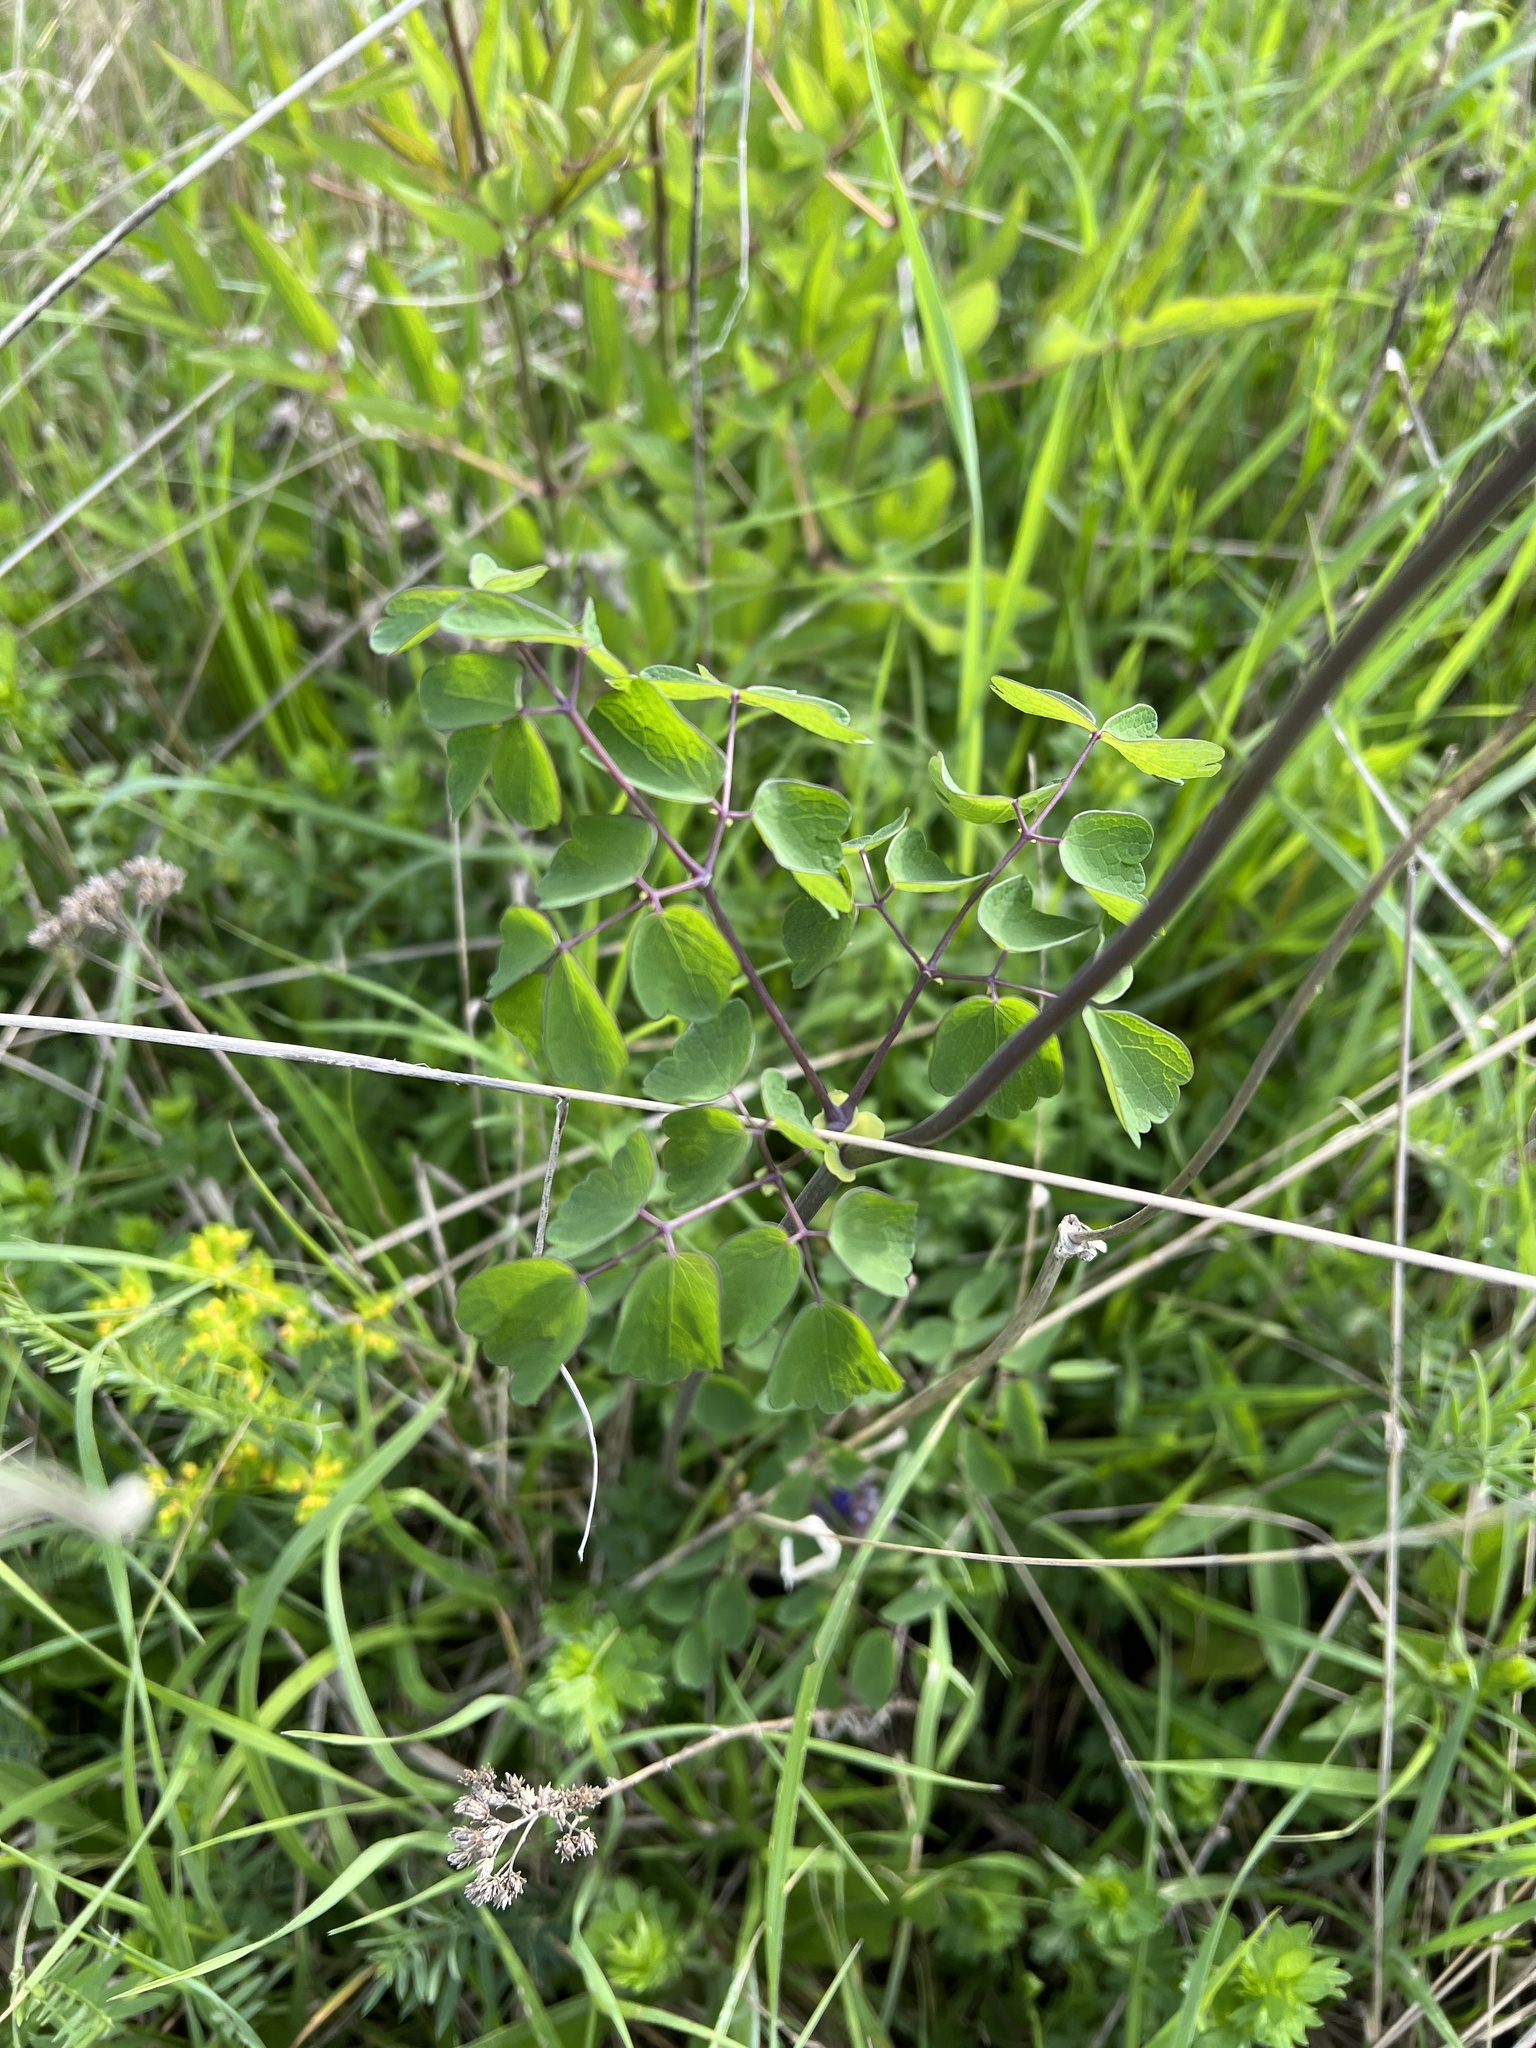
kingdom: Plantae
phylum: Tracheophyta
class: Magnoliopsida
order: Ranunculales
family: Ranunculaceae
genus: Thalictrum
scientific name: Thalictrum aquilegiifolium
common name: French meadow-rue
